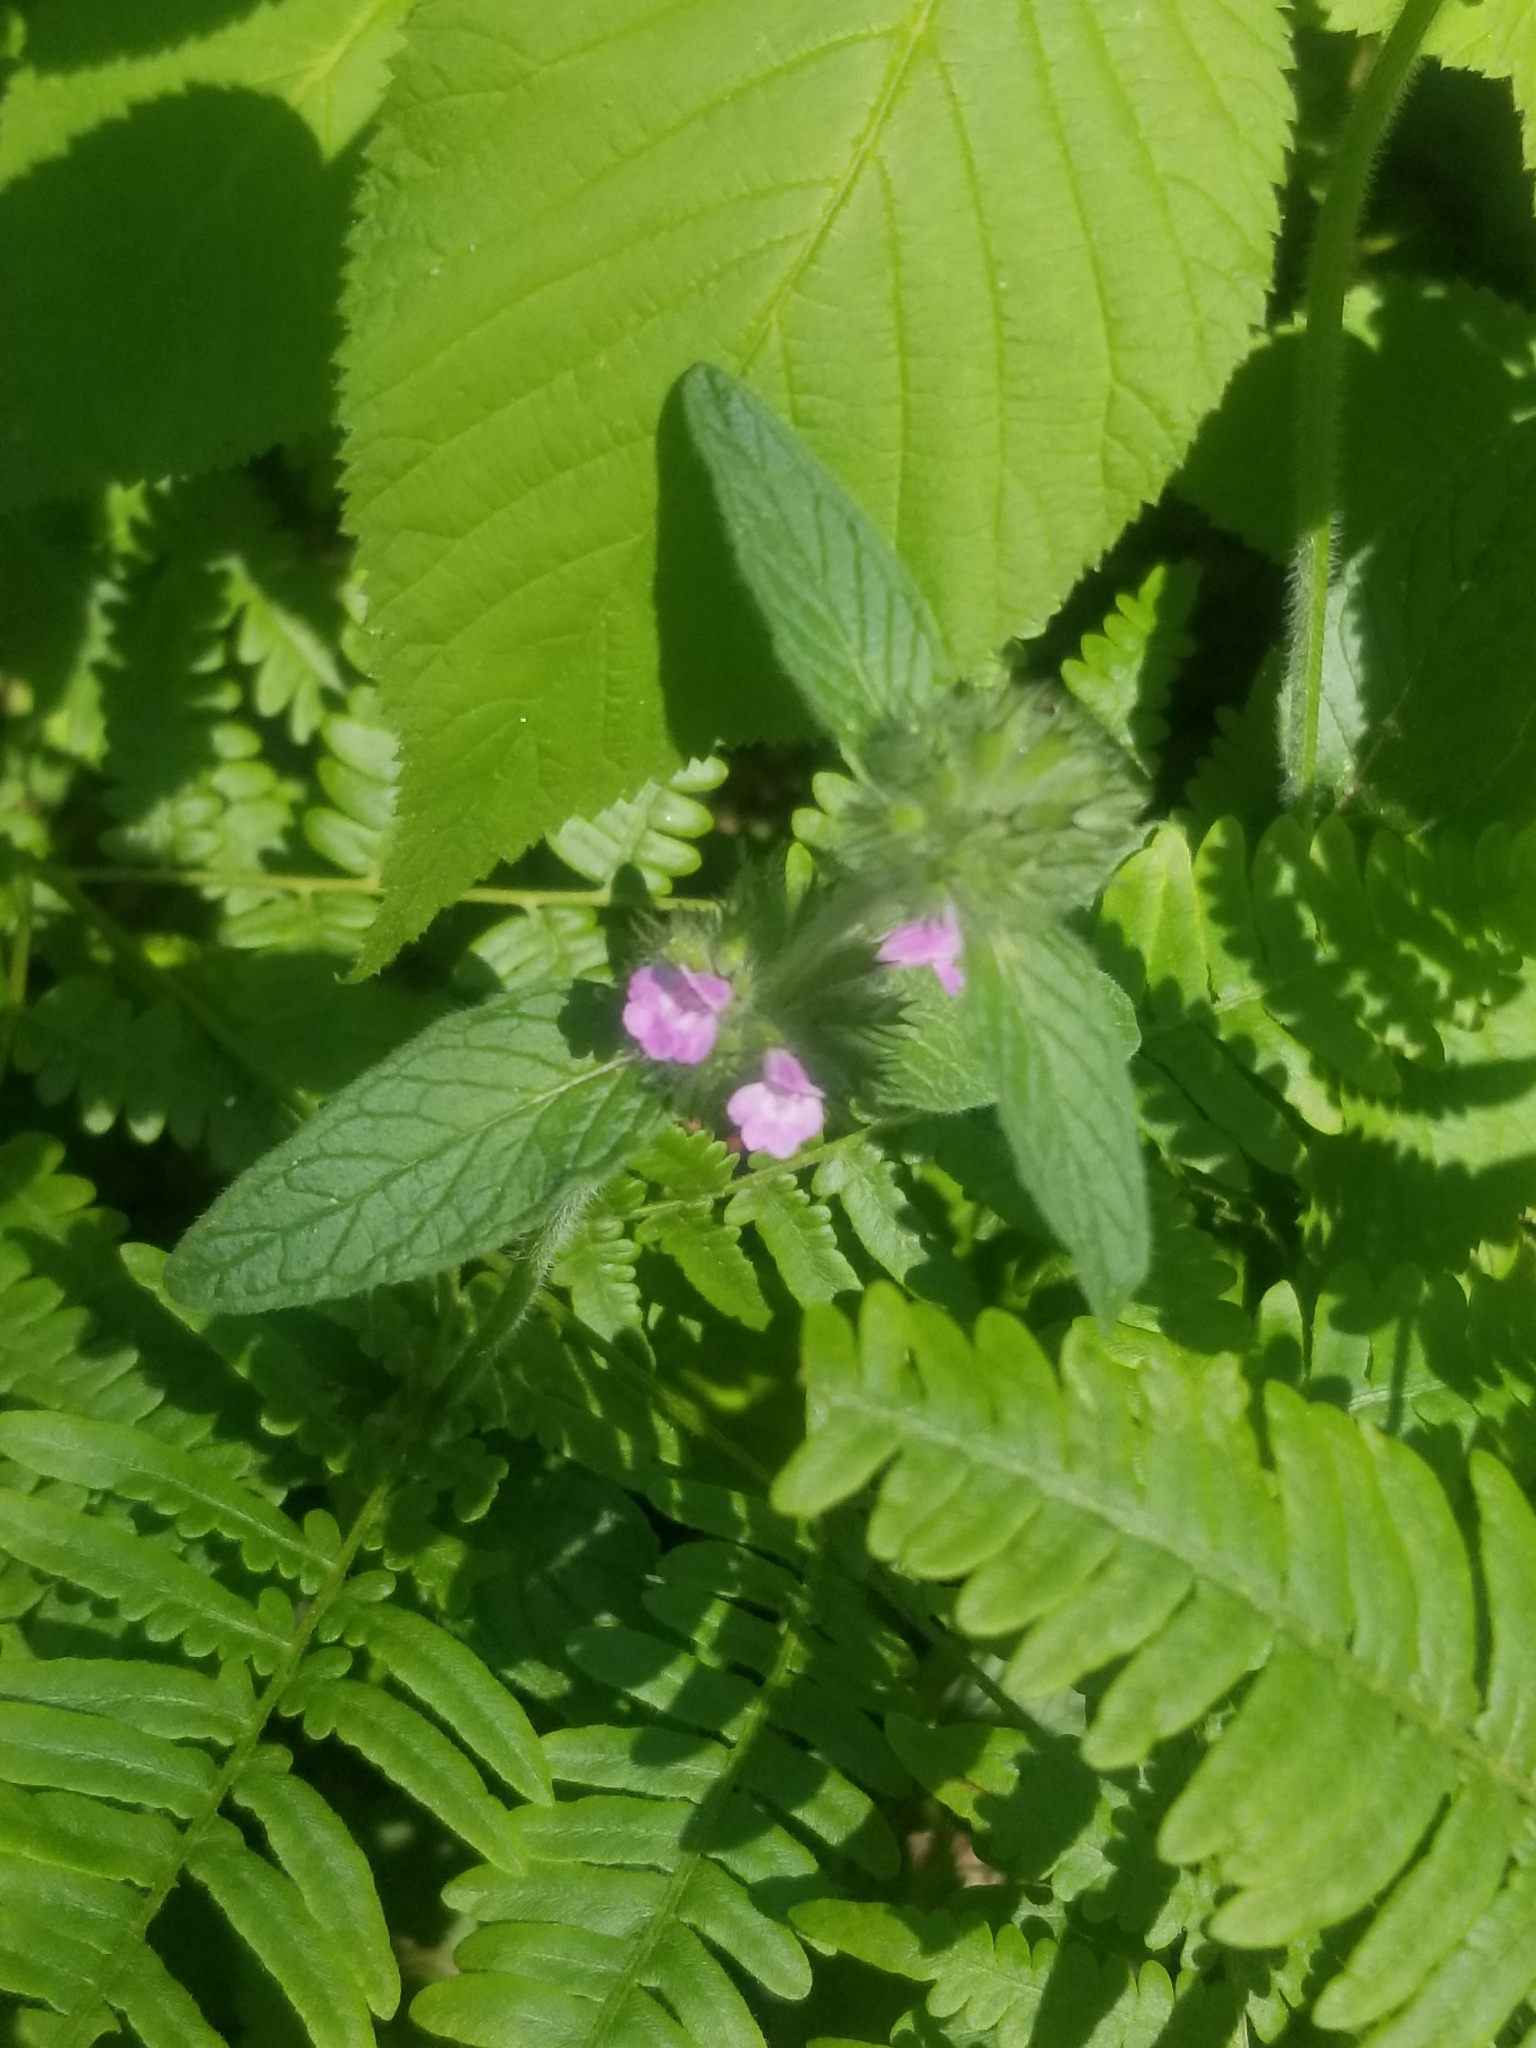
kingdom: Plantae
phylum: Tracheophyta
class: Magnoliopsida
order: Lamiales
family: Lamiaceae
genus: Clinopodium
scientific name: Clinopodium vulgare
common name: Wild basil
